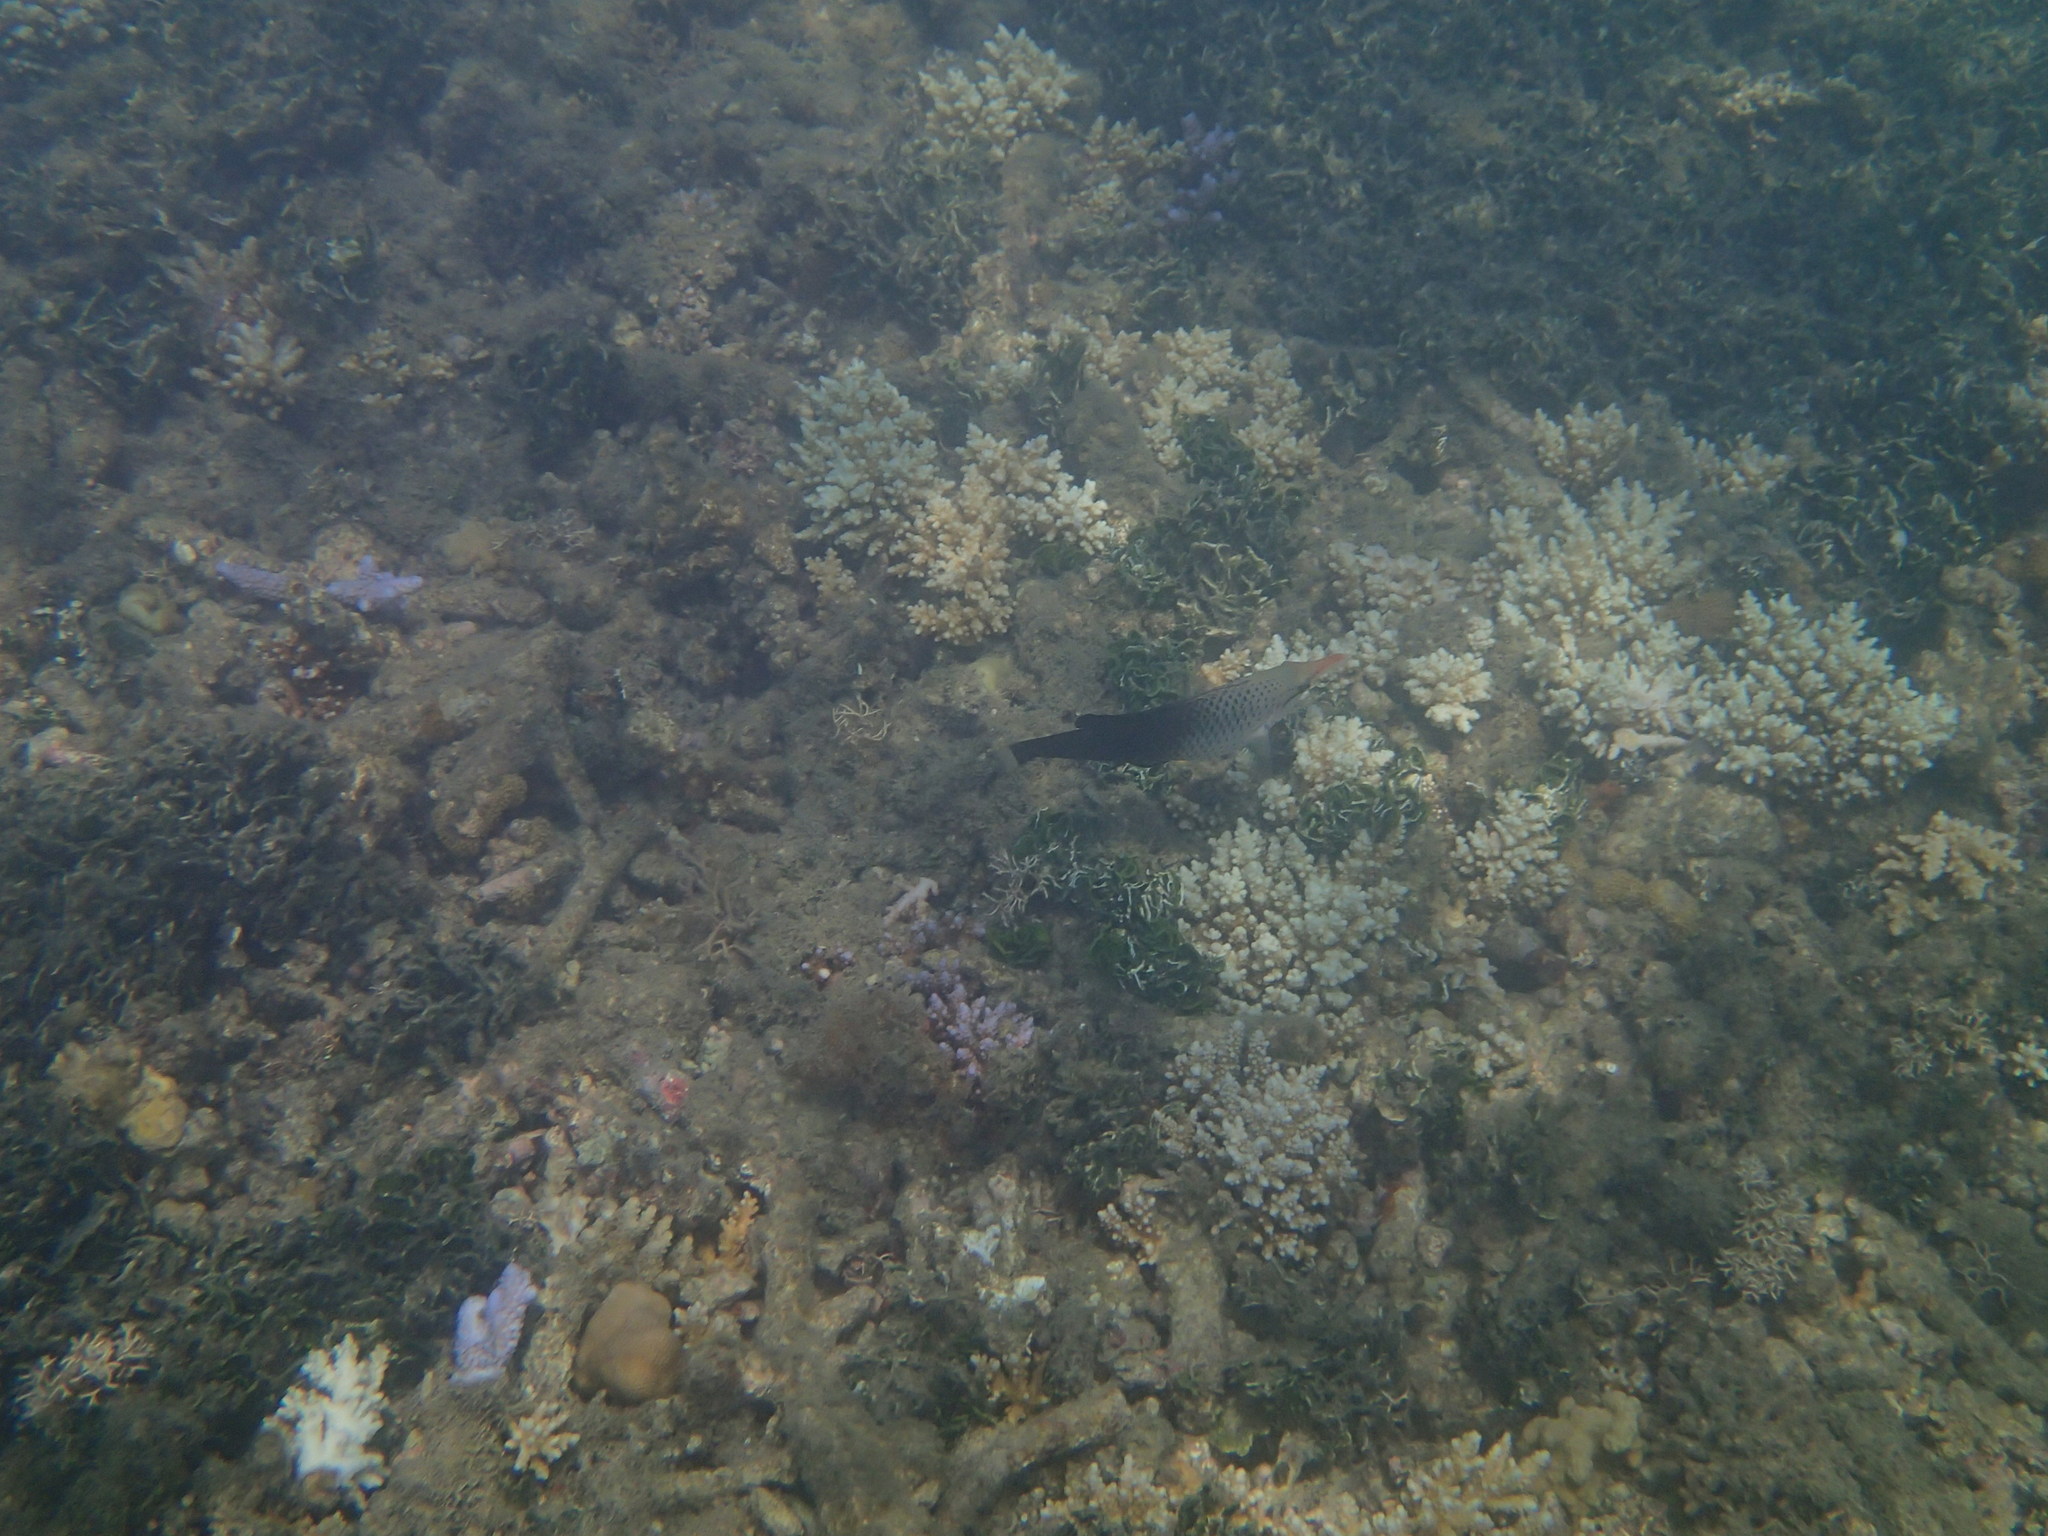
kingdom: Animalia
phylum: Chordata
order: Perciformes
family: Labridae
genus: Gomphosus
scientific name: Gomphosus varius
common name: Bird wrasse
